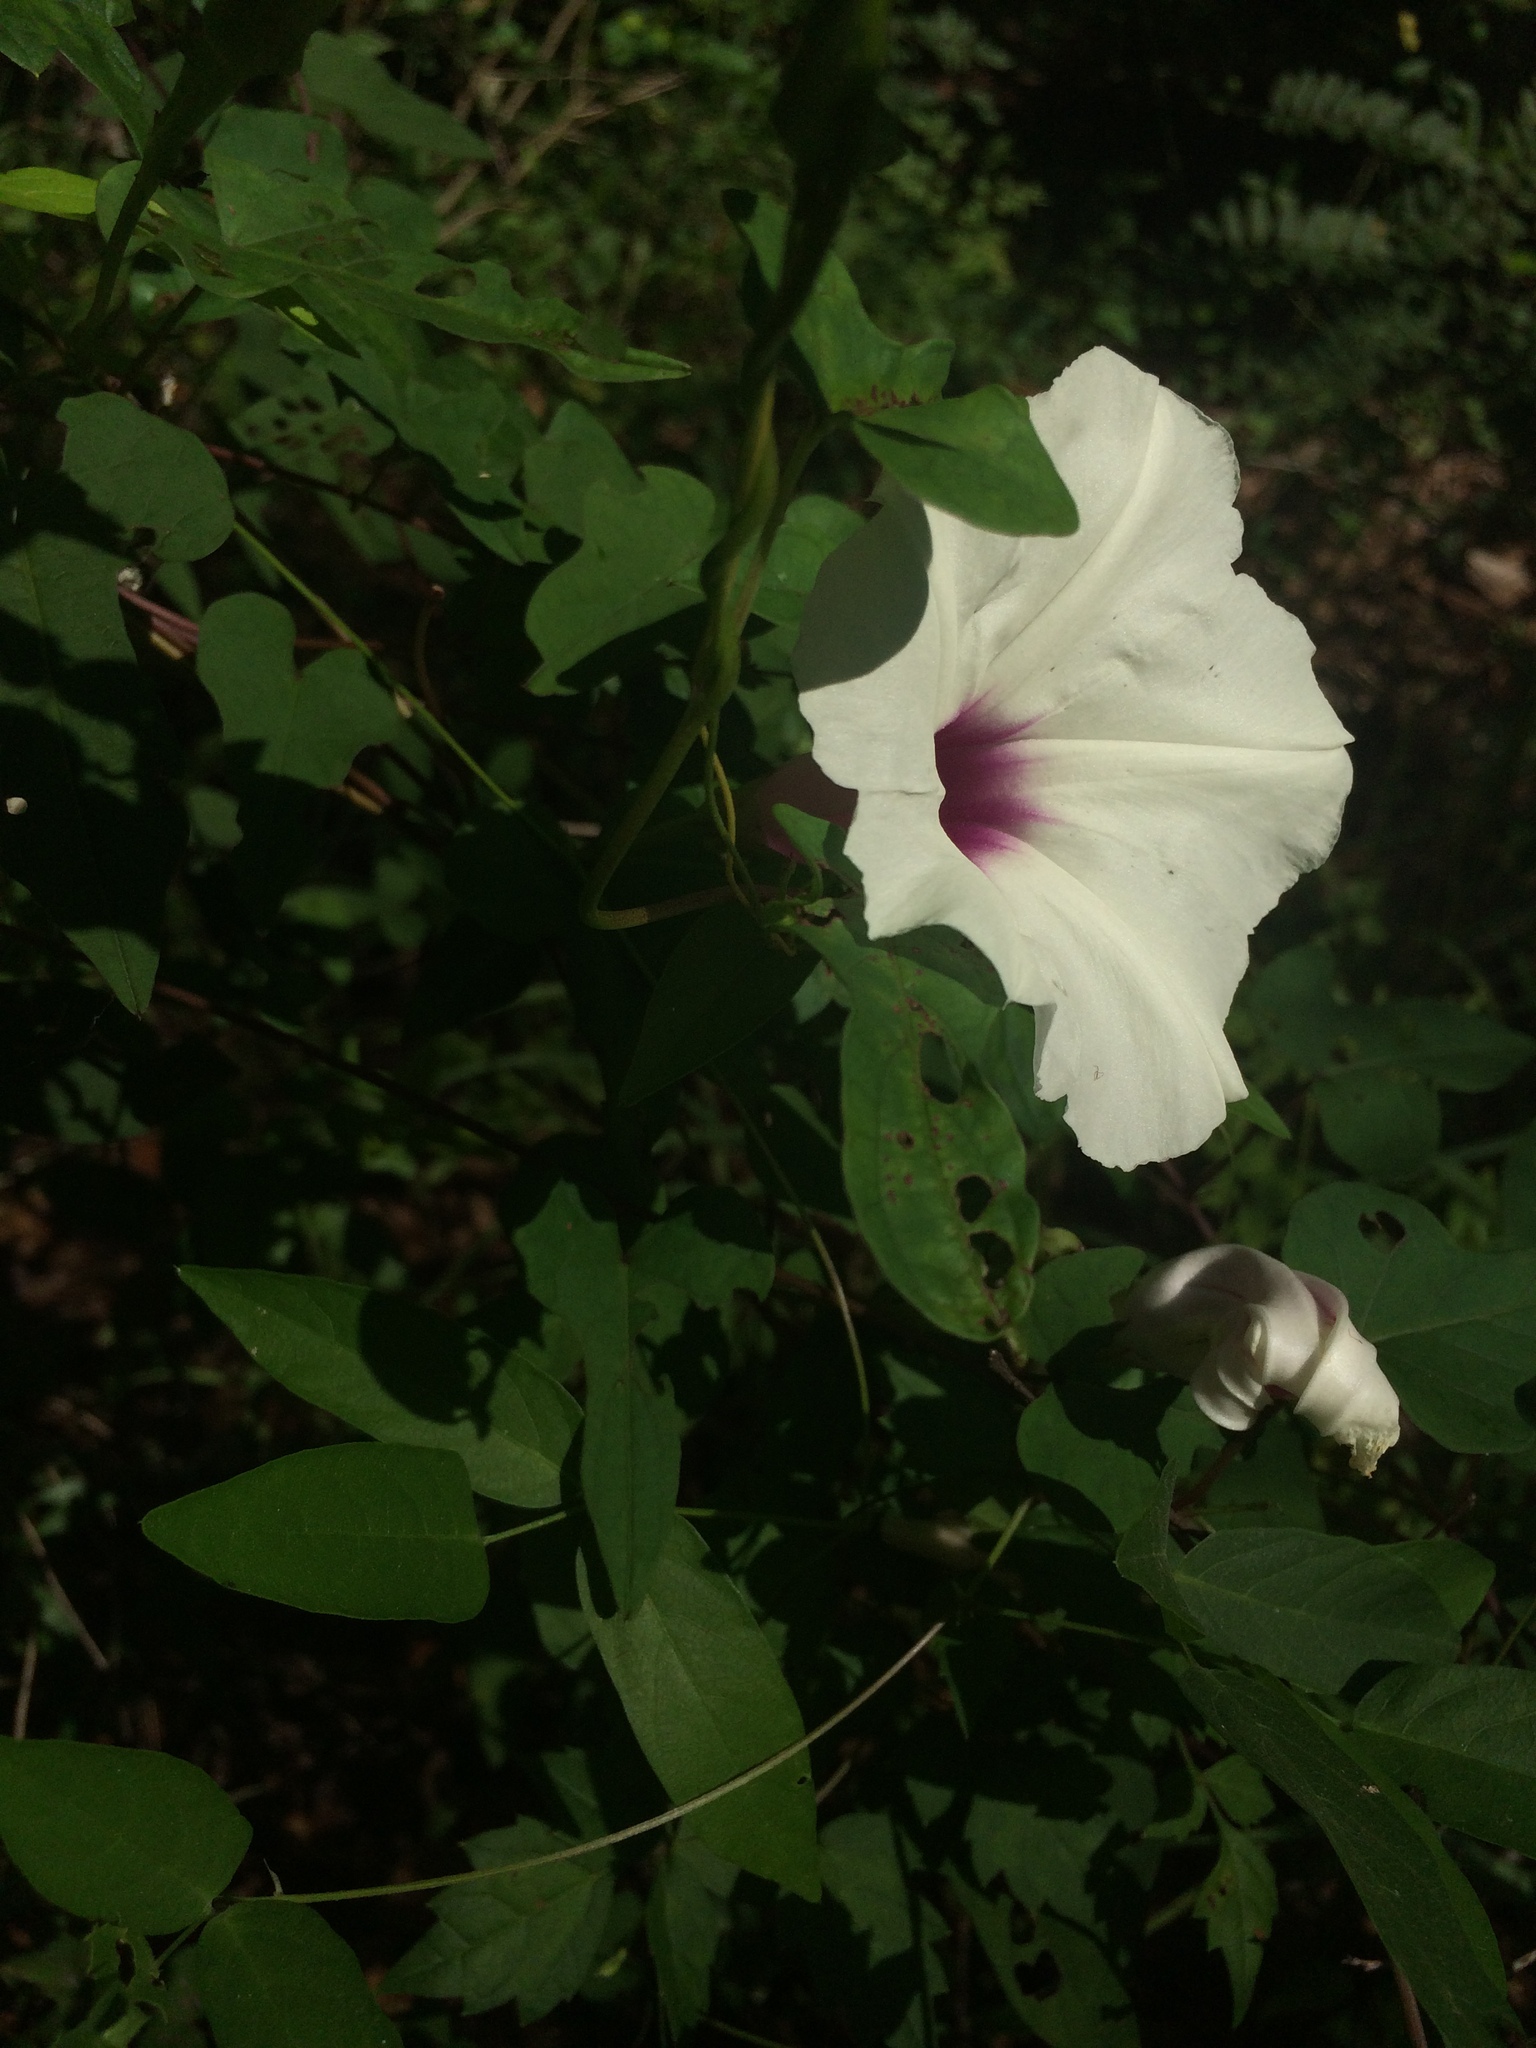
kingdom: Plantae
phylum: Tracheophyta
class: Magnoliopsida
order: Solanales
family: Convolvulaceae
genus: Ipomoea
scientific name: Ipomoea pandurata
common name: Man-of-the-earth
